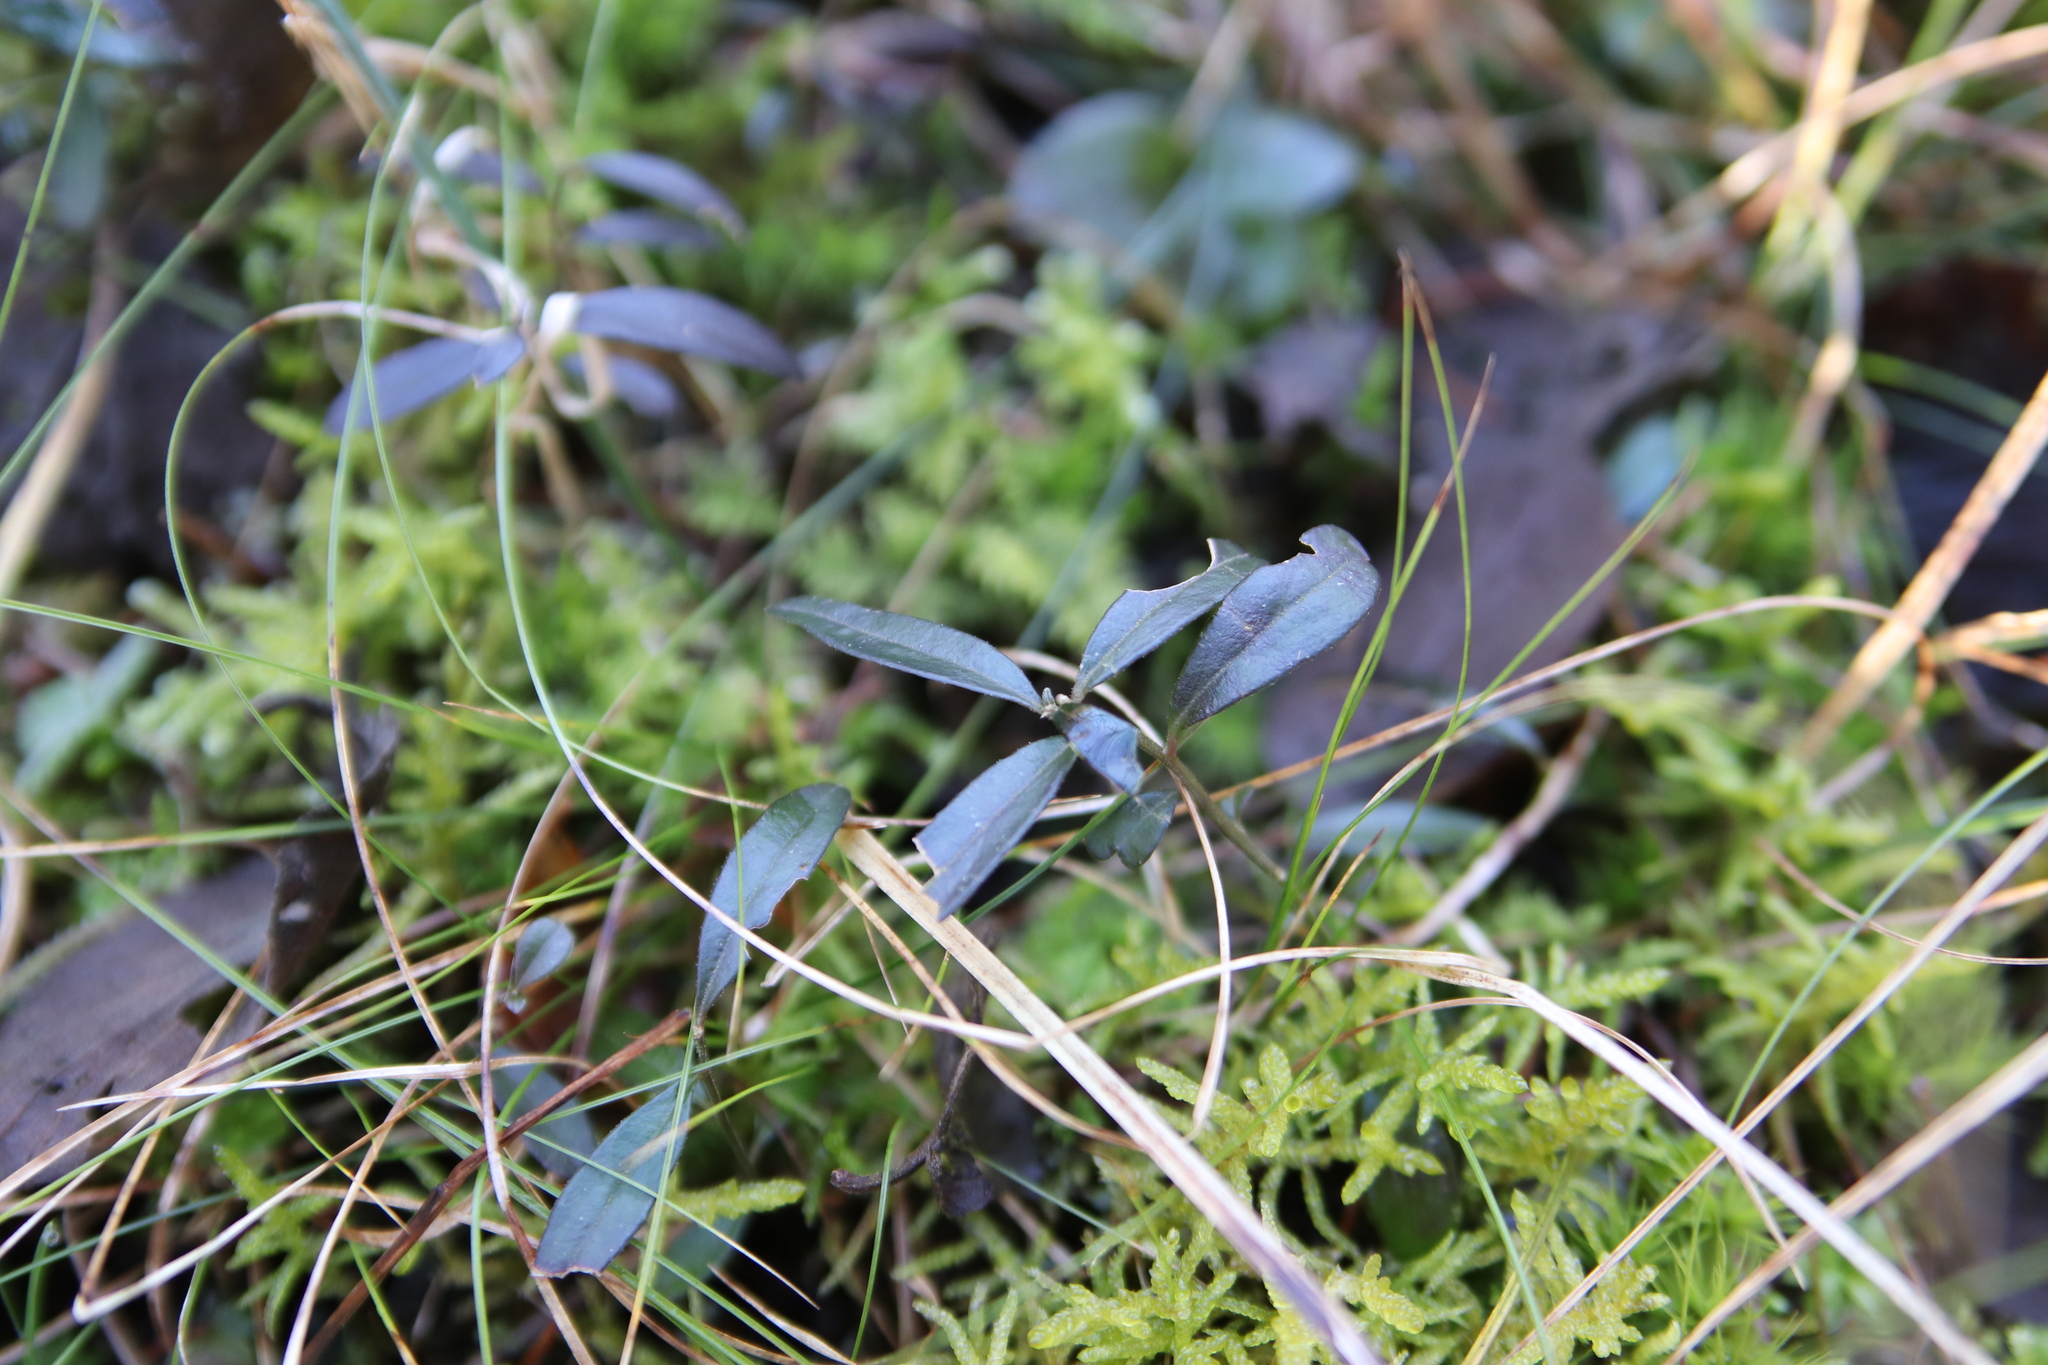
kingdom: Plantae
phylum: Tracheophyta
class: Magnoliopsida
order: Fabales
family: Polygalaceae
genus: Polygaloides
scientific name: Polygaloides chamaebuxus
